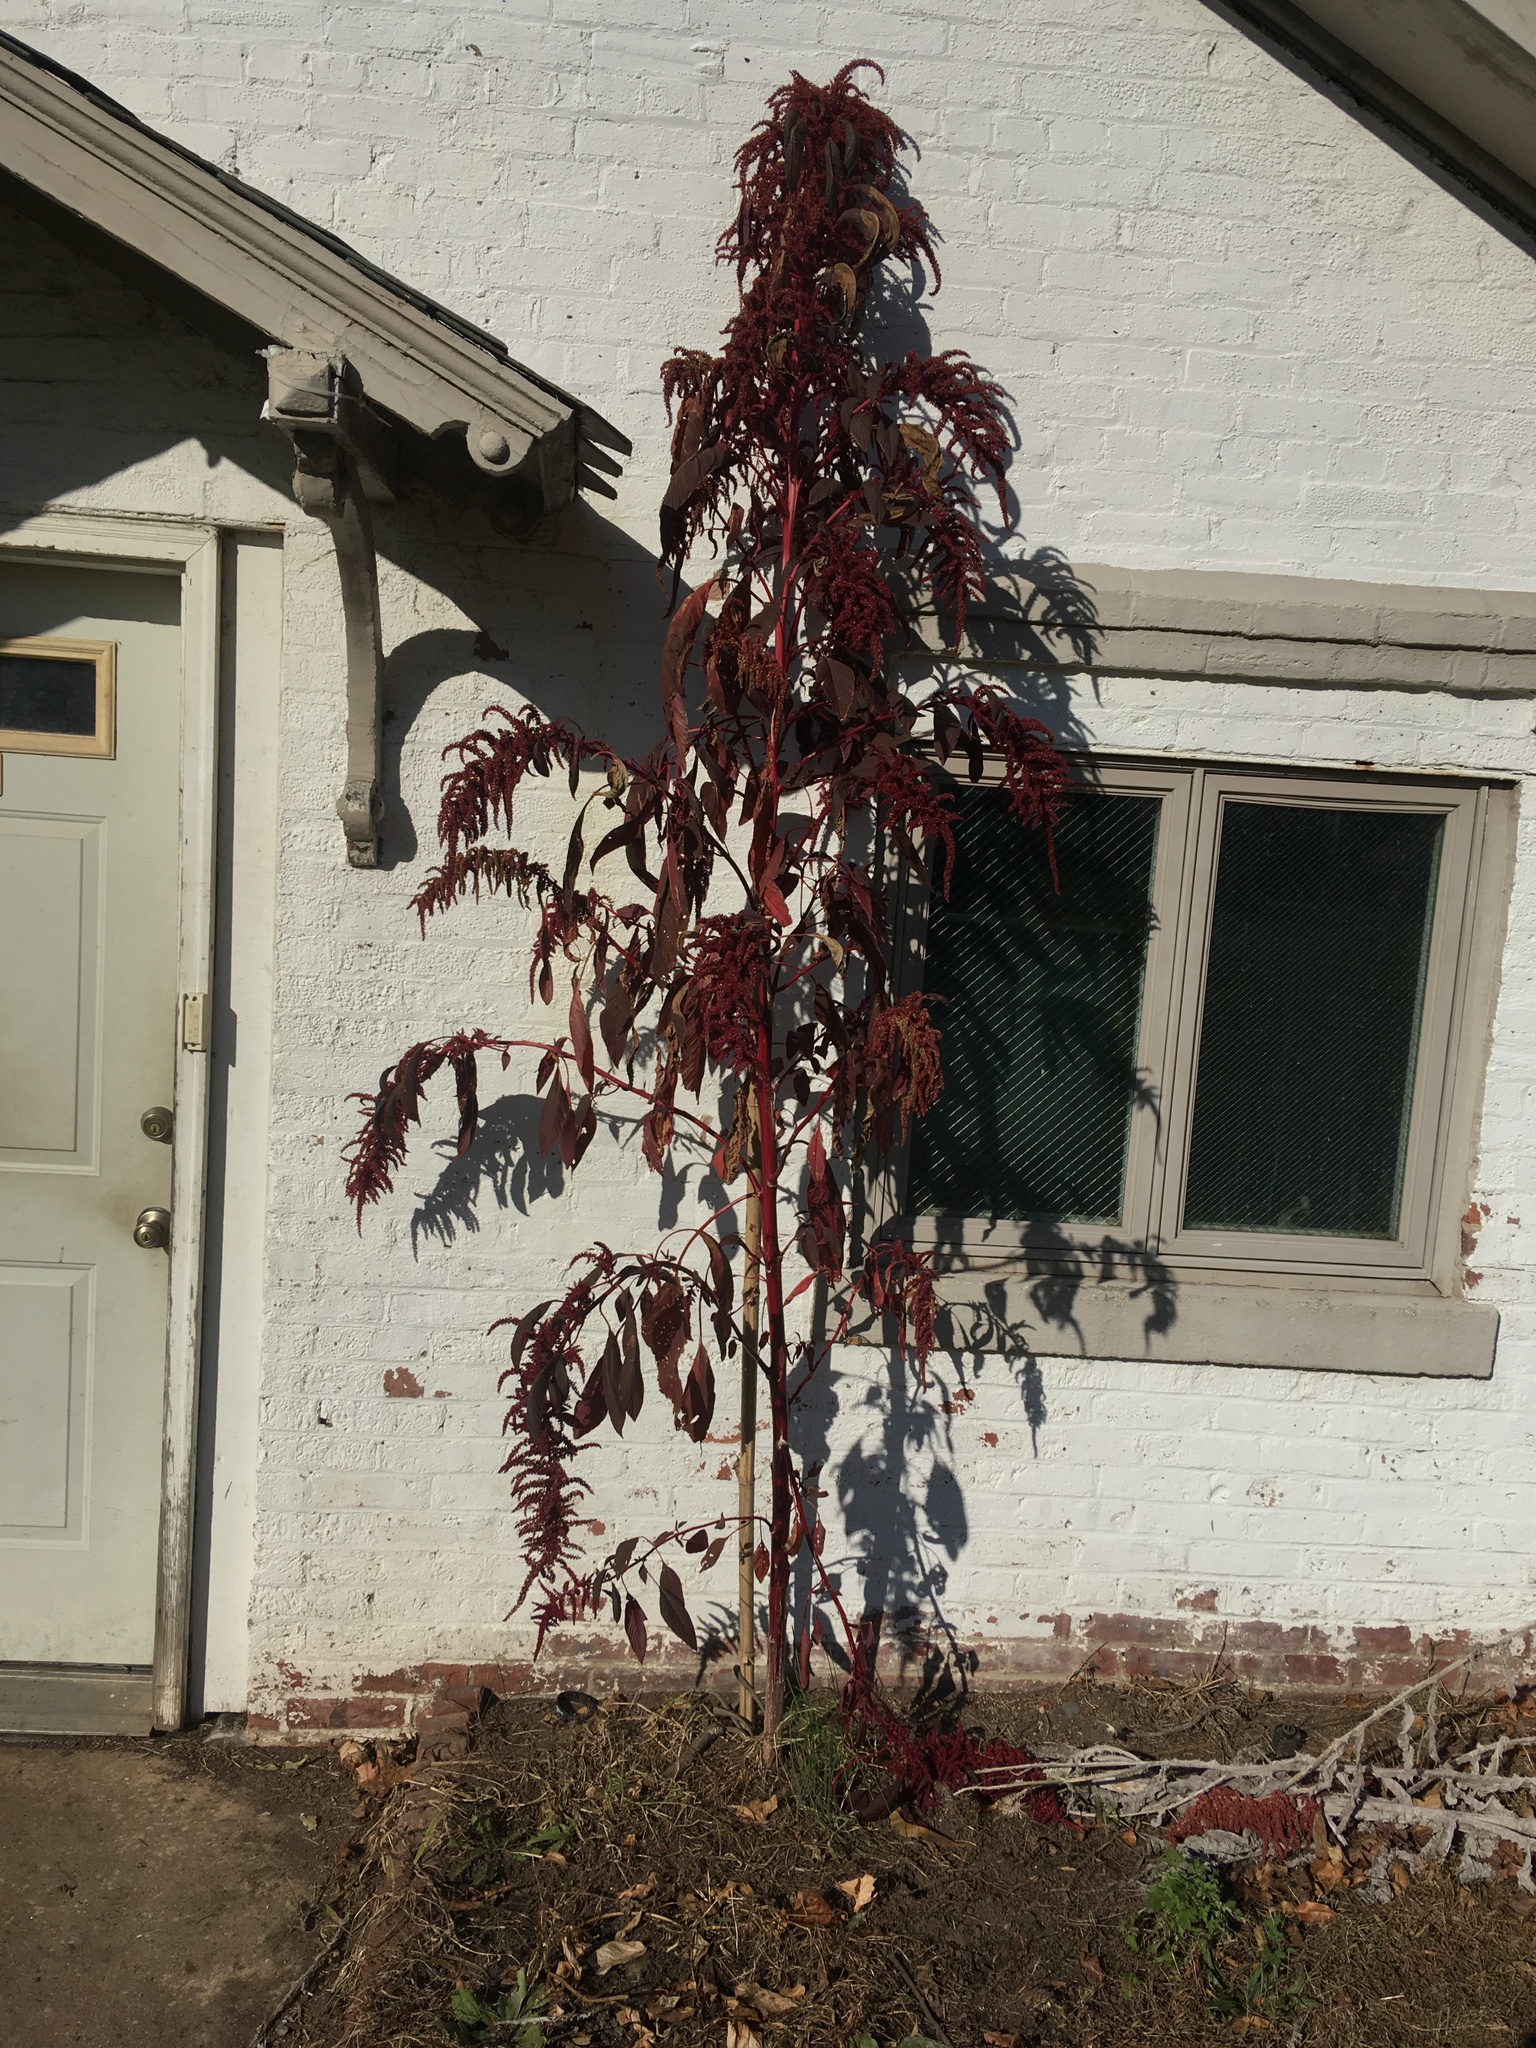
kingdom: Plantae
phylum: Tracheophyta
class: Magnoliopsida
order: Caryophyllales
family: Amaranthaceae
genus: Amaranthus
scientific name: Amaranthus cruentus
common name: Purple amaranth
